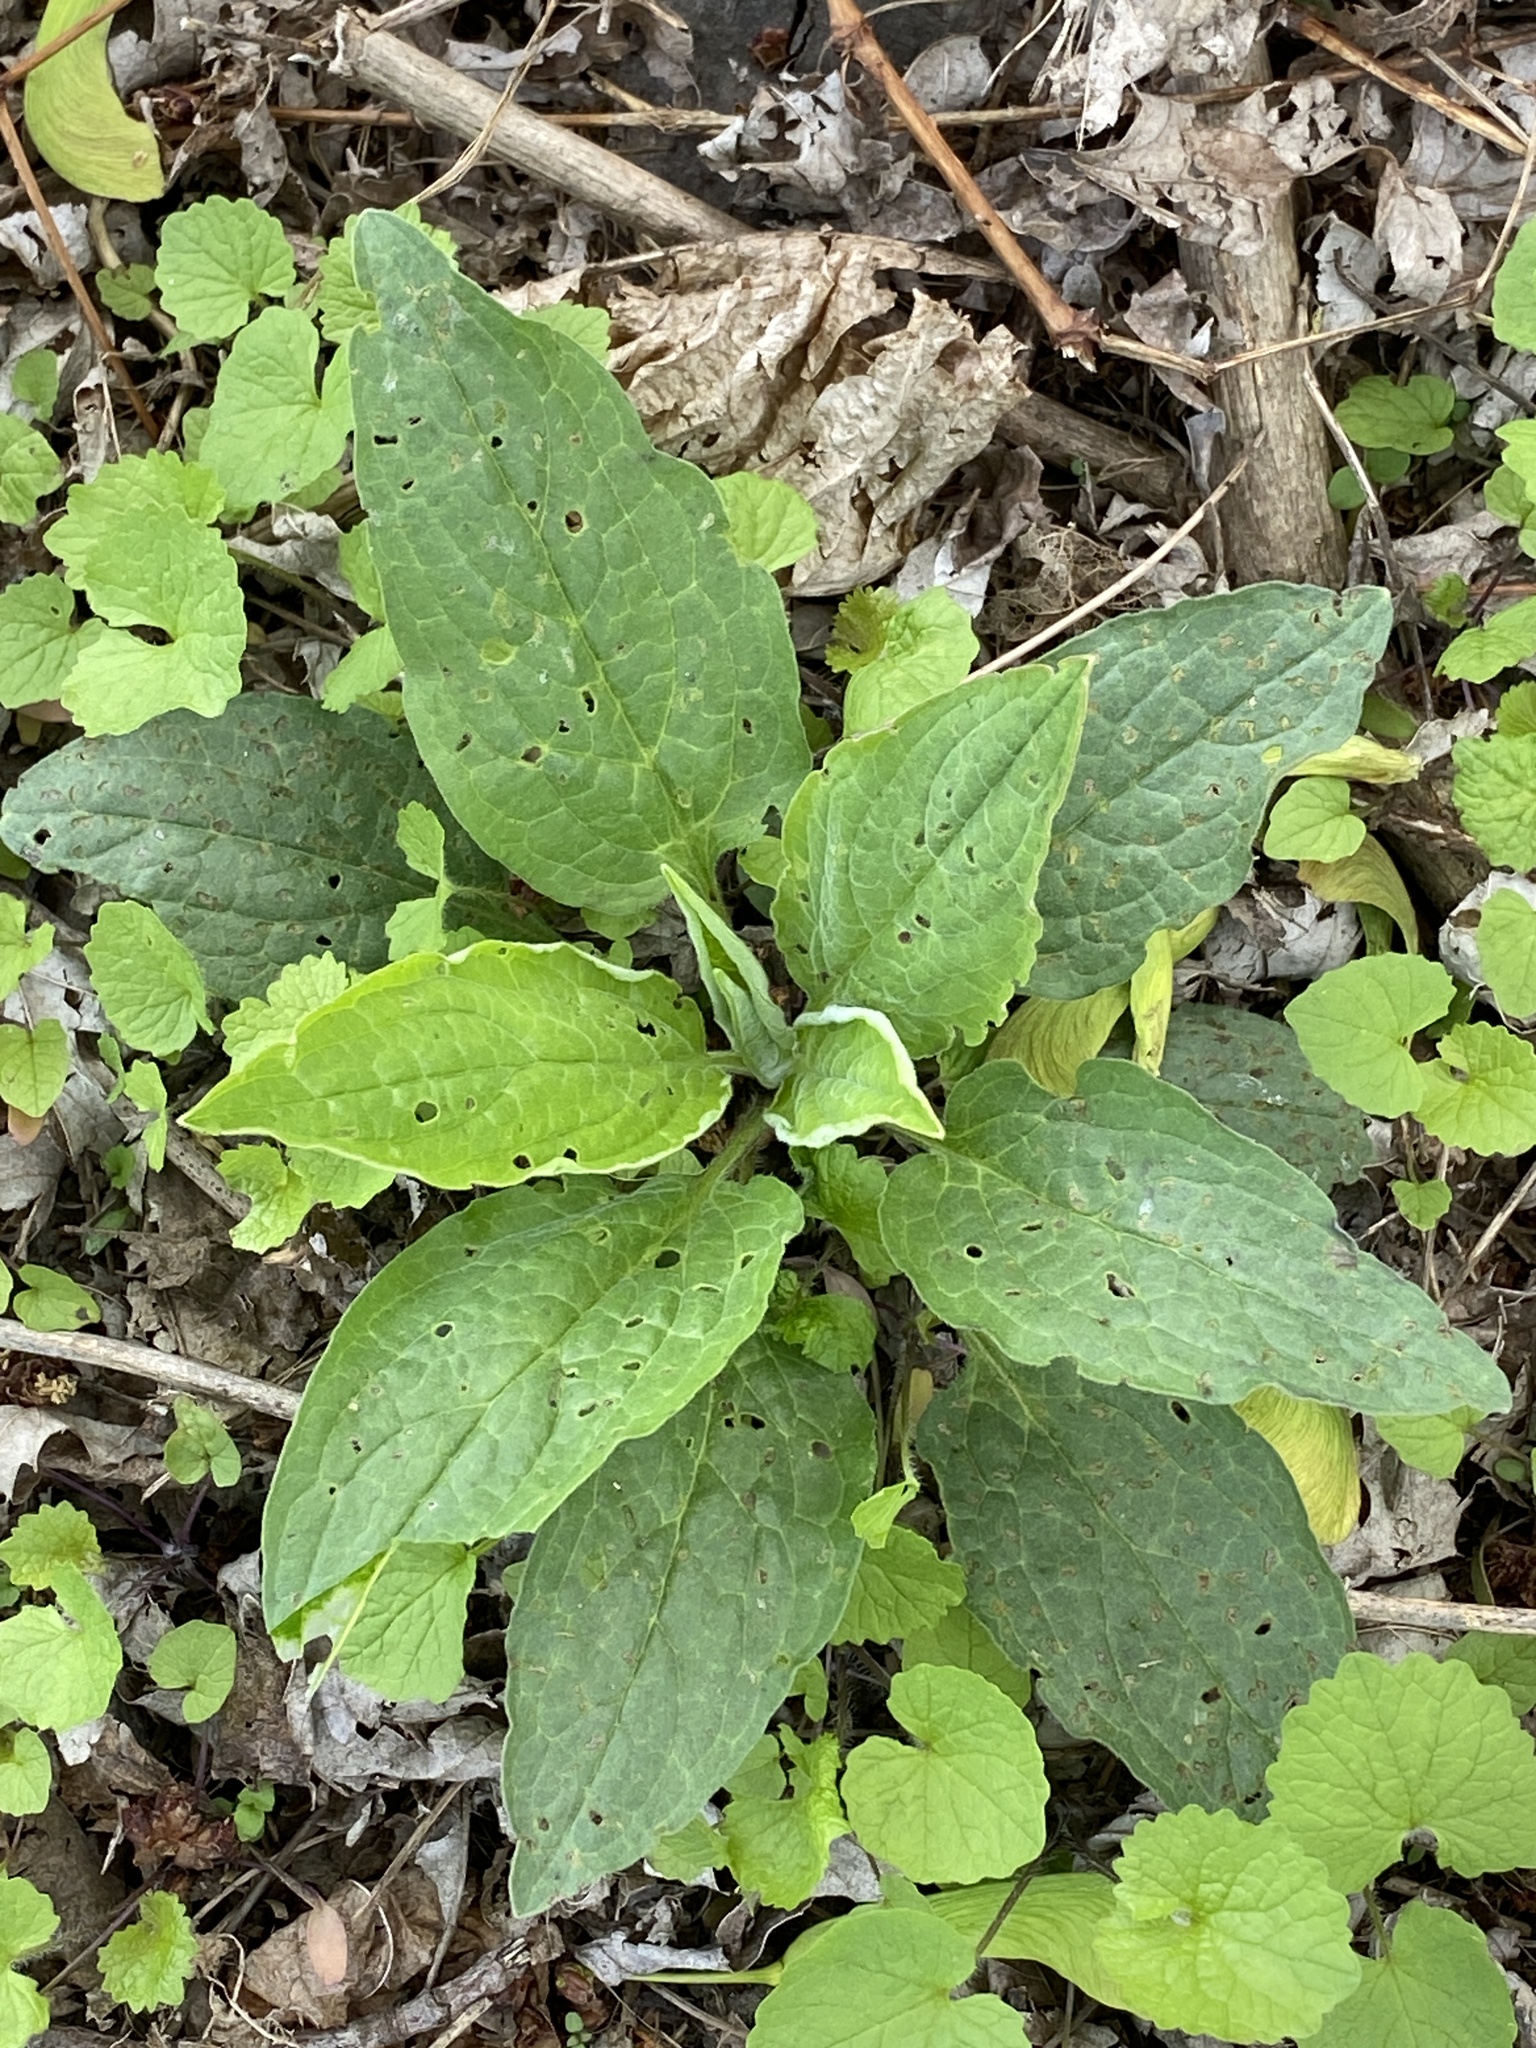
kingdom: Plantae
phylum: Tracheophyta
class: Magnoliopsida
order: Boraginales
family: Boraginaceae
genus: Hackelia
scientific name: Hackelia virginiana
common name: Beggar's-lice
